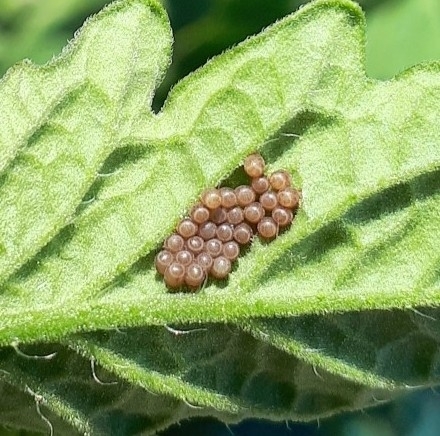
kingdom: Animalia
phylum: Arthropoda
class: Insecta
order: Hemiptera
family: Pentatomidae
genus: Dolycoris
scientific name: Dolycoris baccarum
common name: Sloe bug
